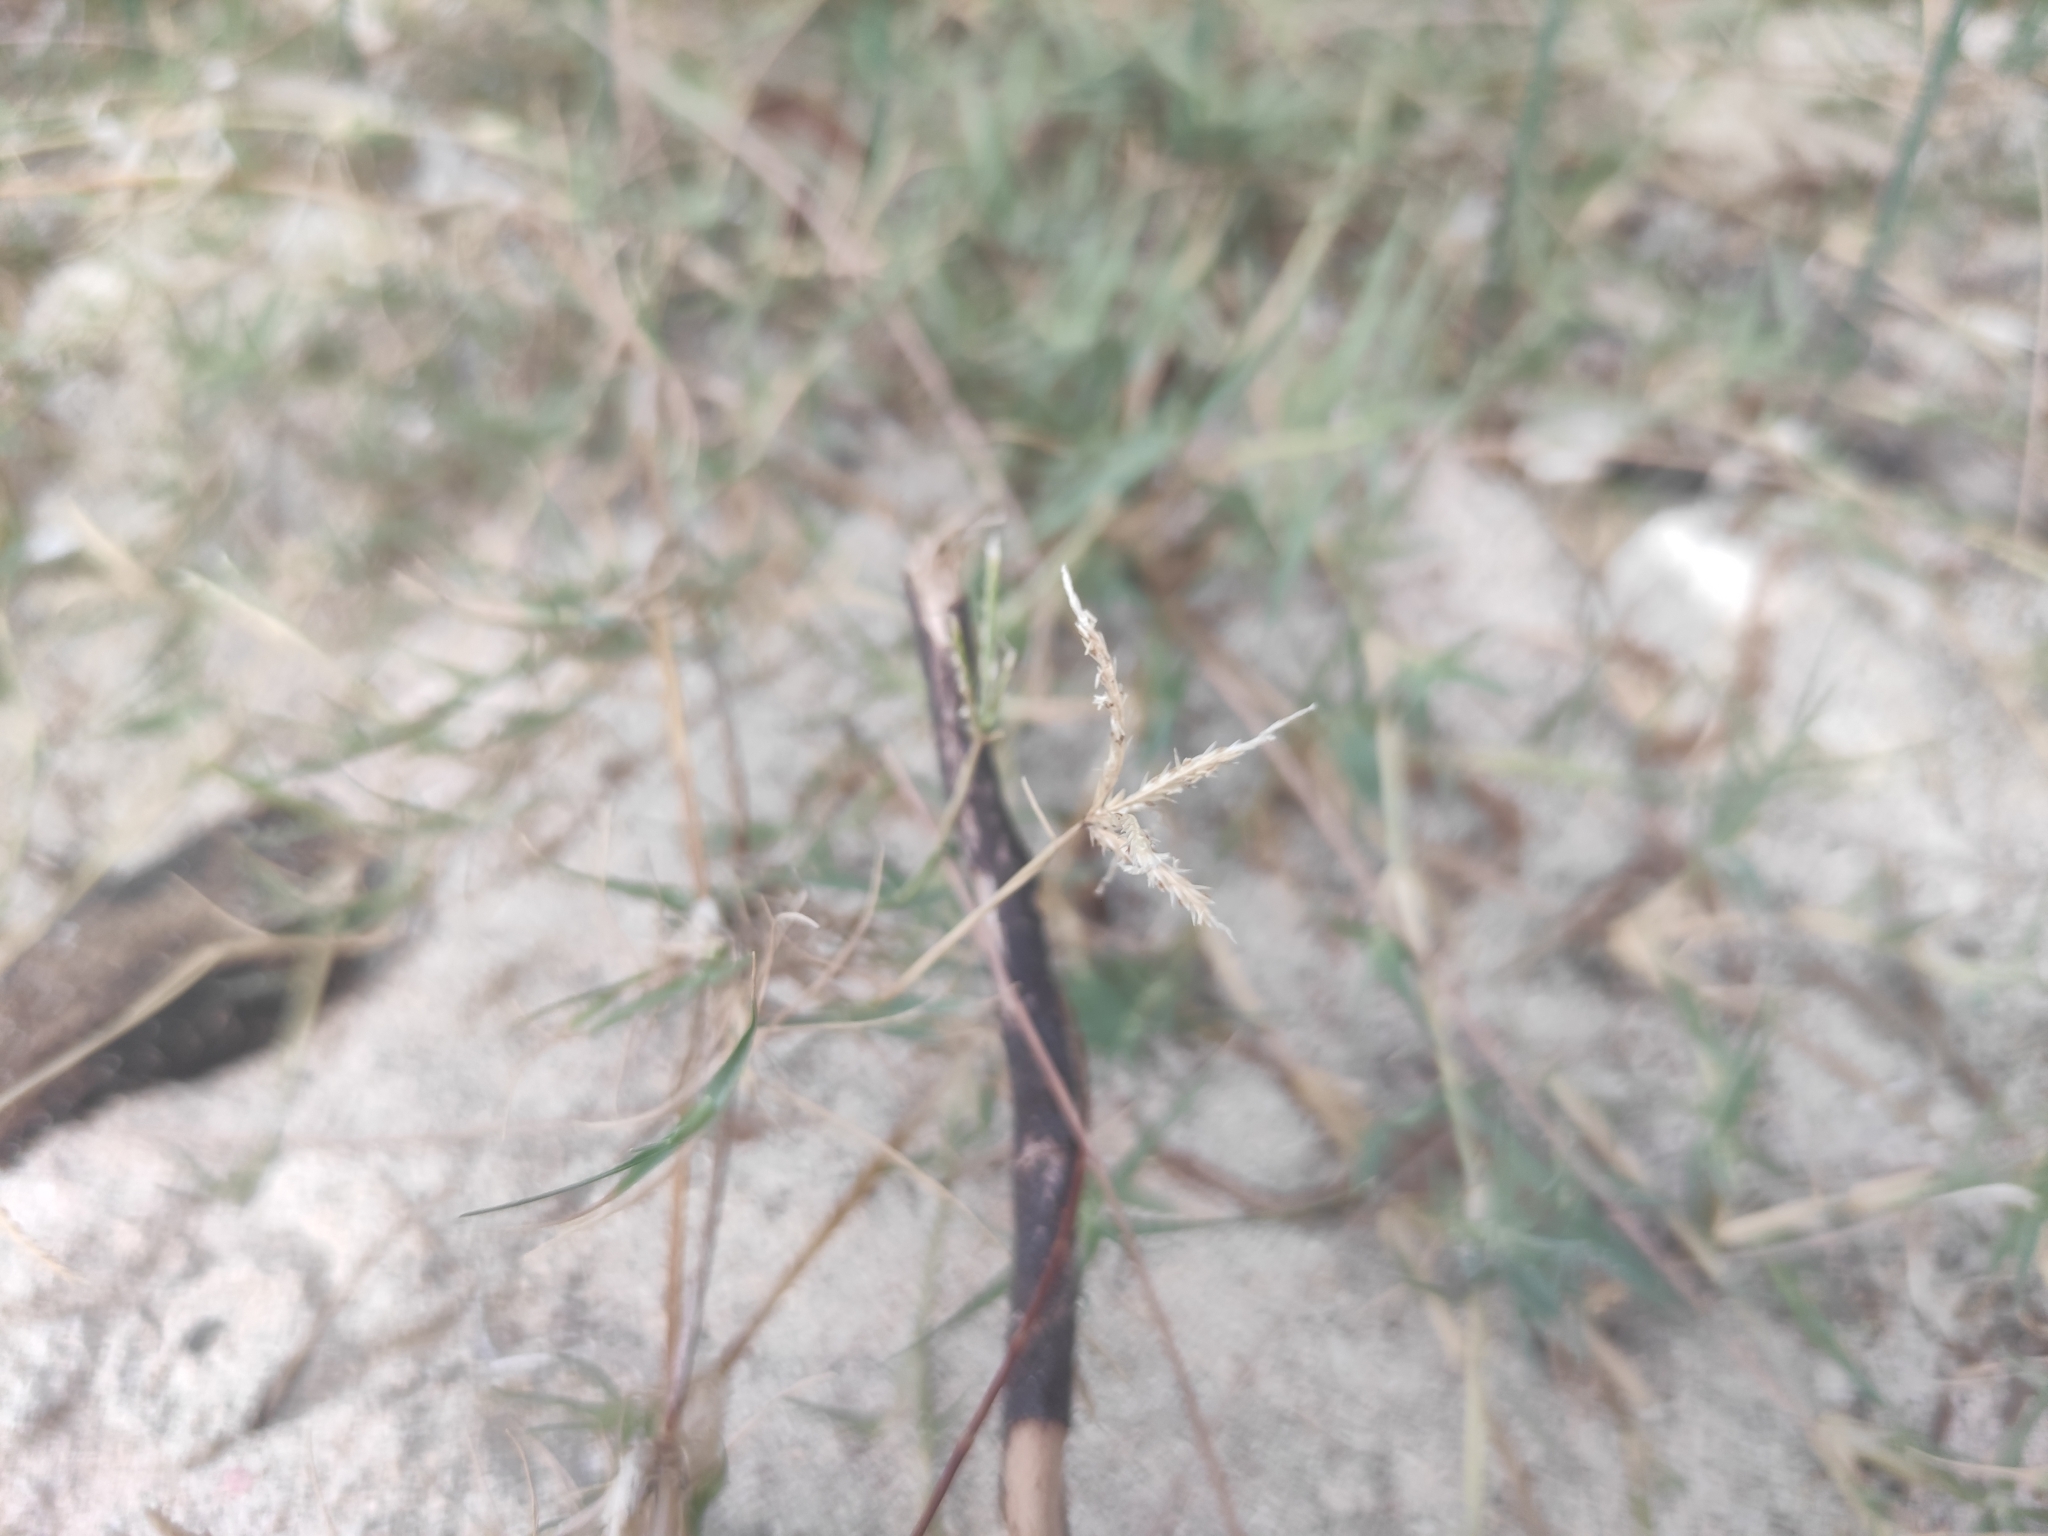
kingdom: Plantae
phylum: Tracheophyta
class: Liliopsida
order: Poales
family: Poaceae
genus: Cynodon
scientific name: Cynodon dactylon
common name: Bermuda grass
